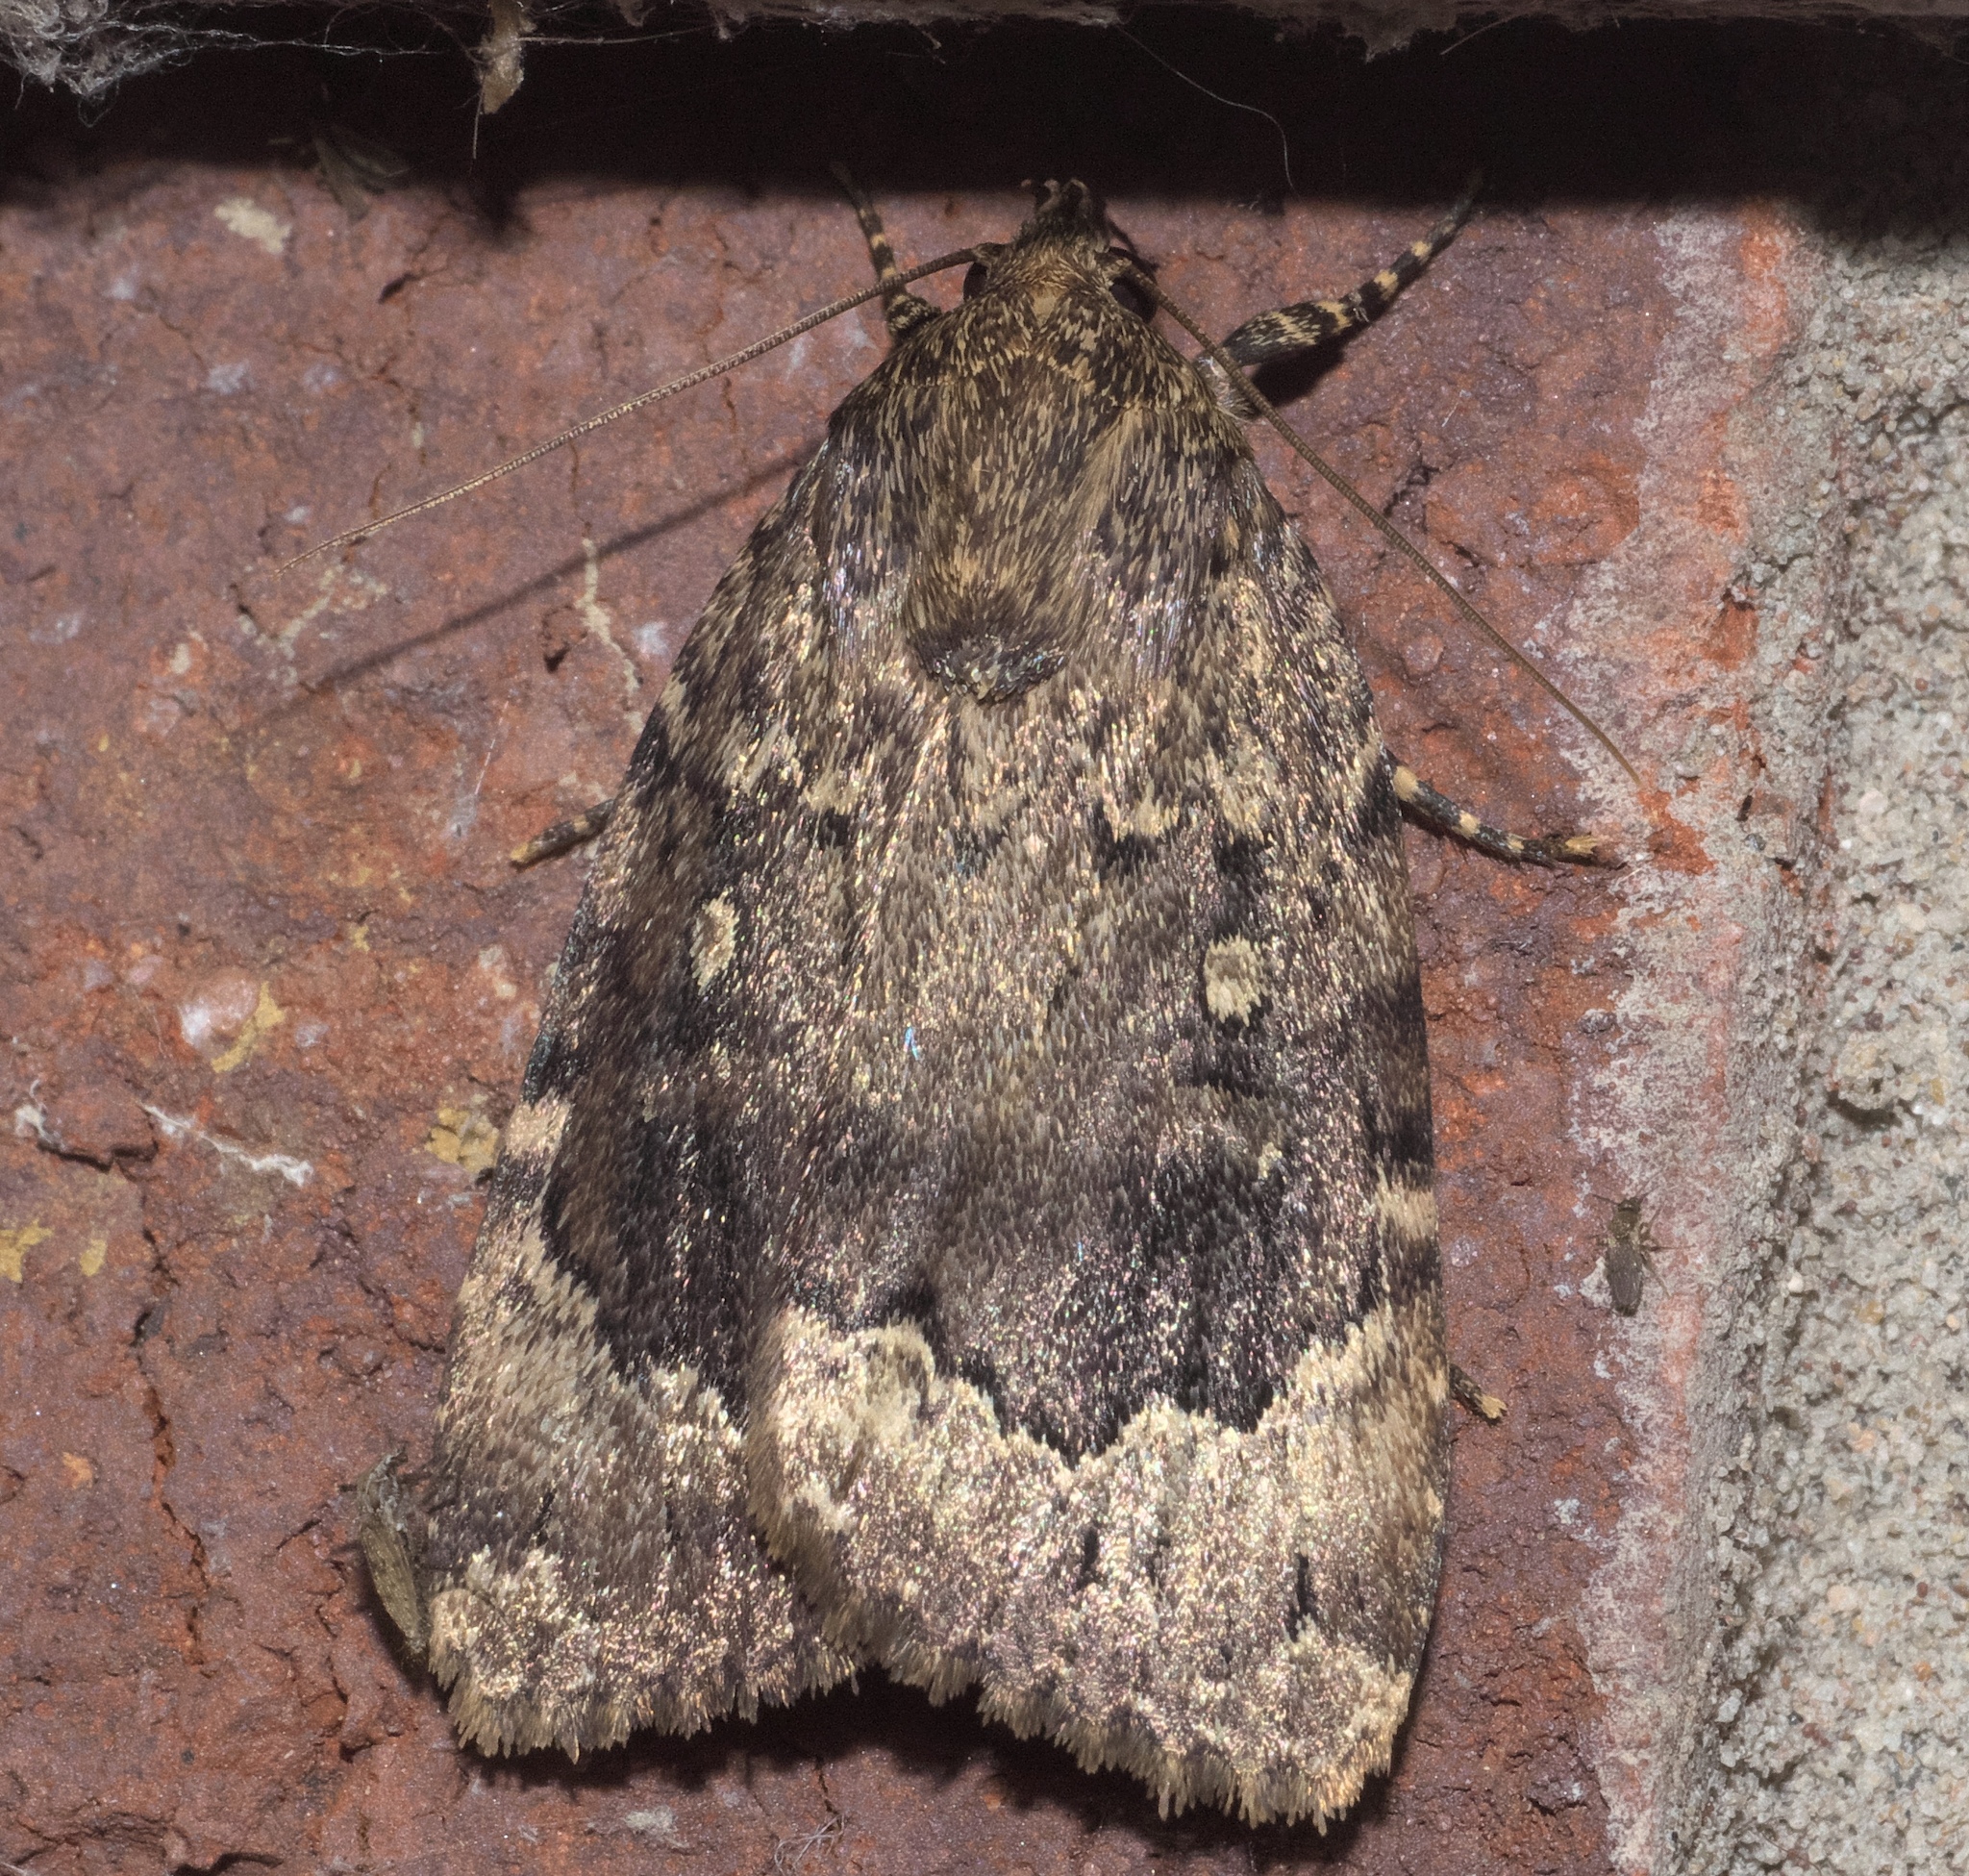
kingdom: Animalia
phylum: Arthropoda
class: Insecta
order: Lepidoptera
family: Noctuidae
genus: Amphipyra
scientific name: Amphipyra pyramidoides
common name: American copper underwing
